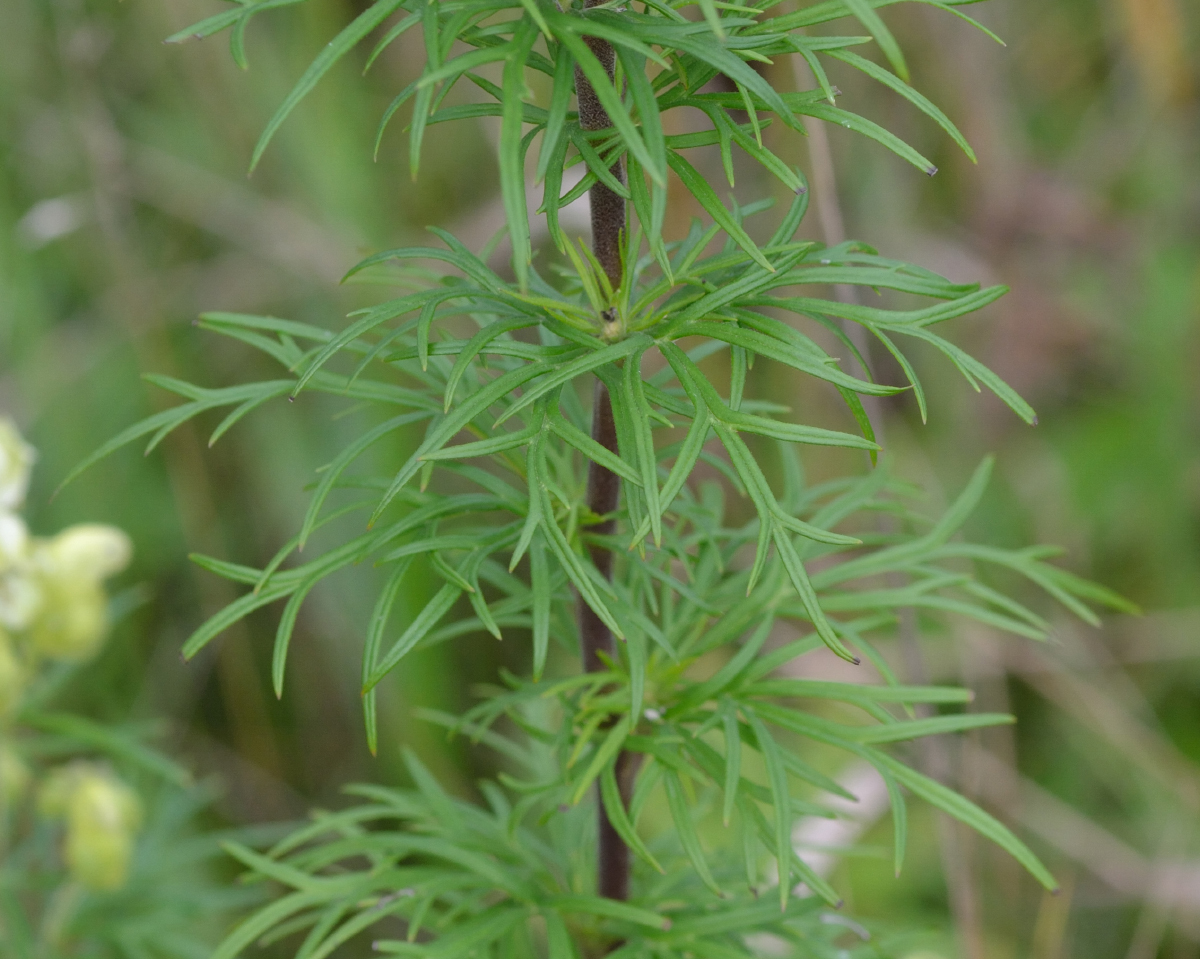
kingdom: Plantae
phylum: Tracheophyta
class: Magnoliopsida
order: Ranunculales
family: Ranunculaceae
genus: Aconitum
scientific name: Aconitum anthora
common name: Yellow monkshood
